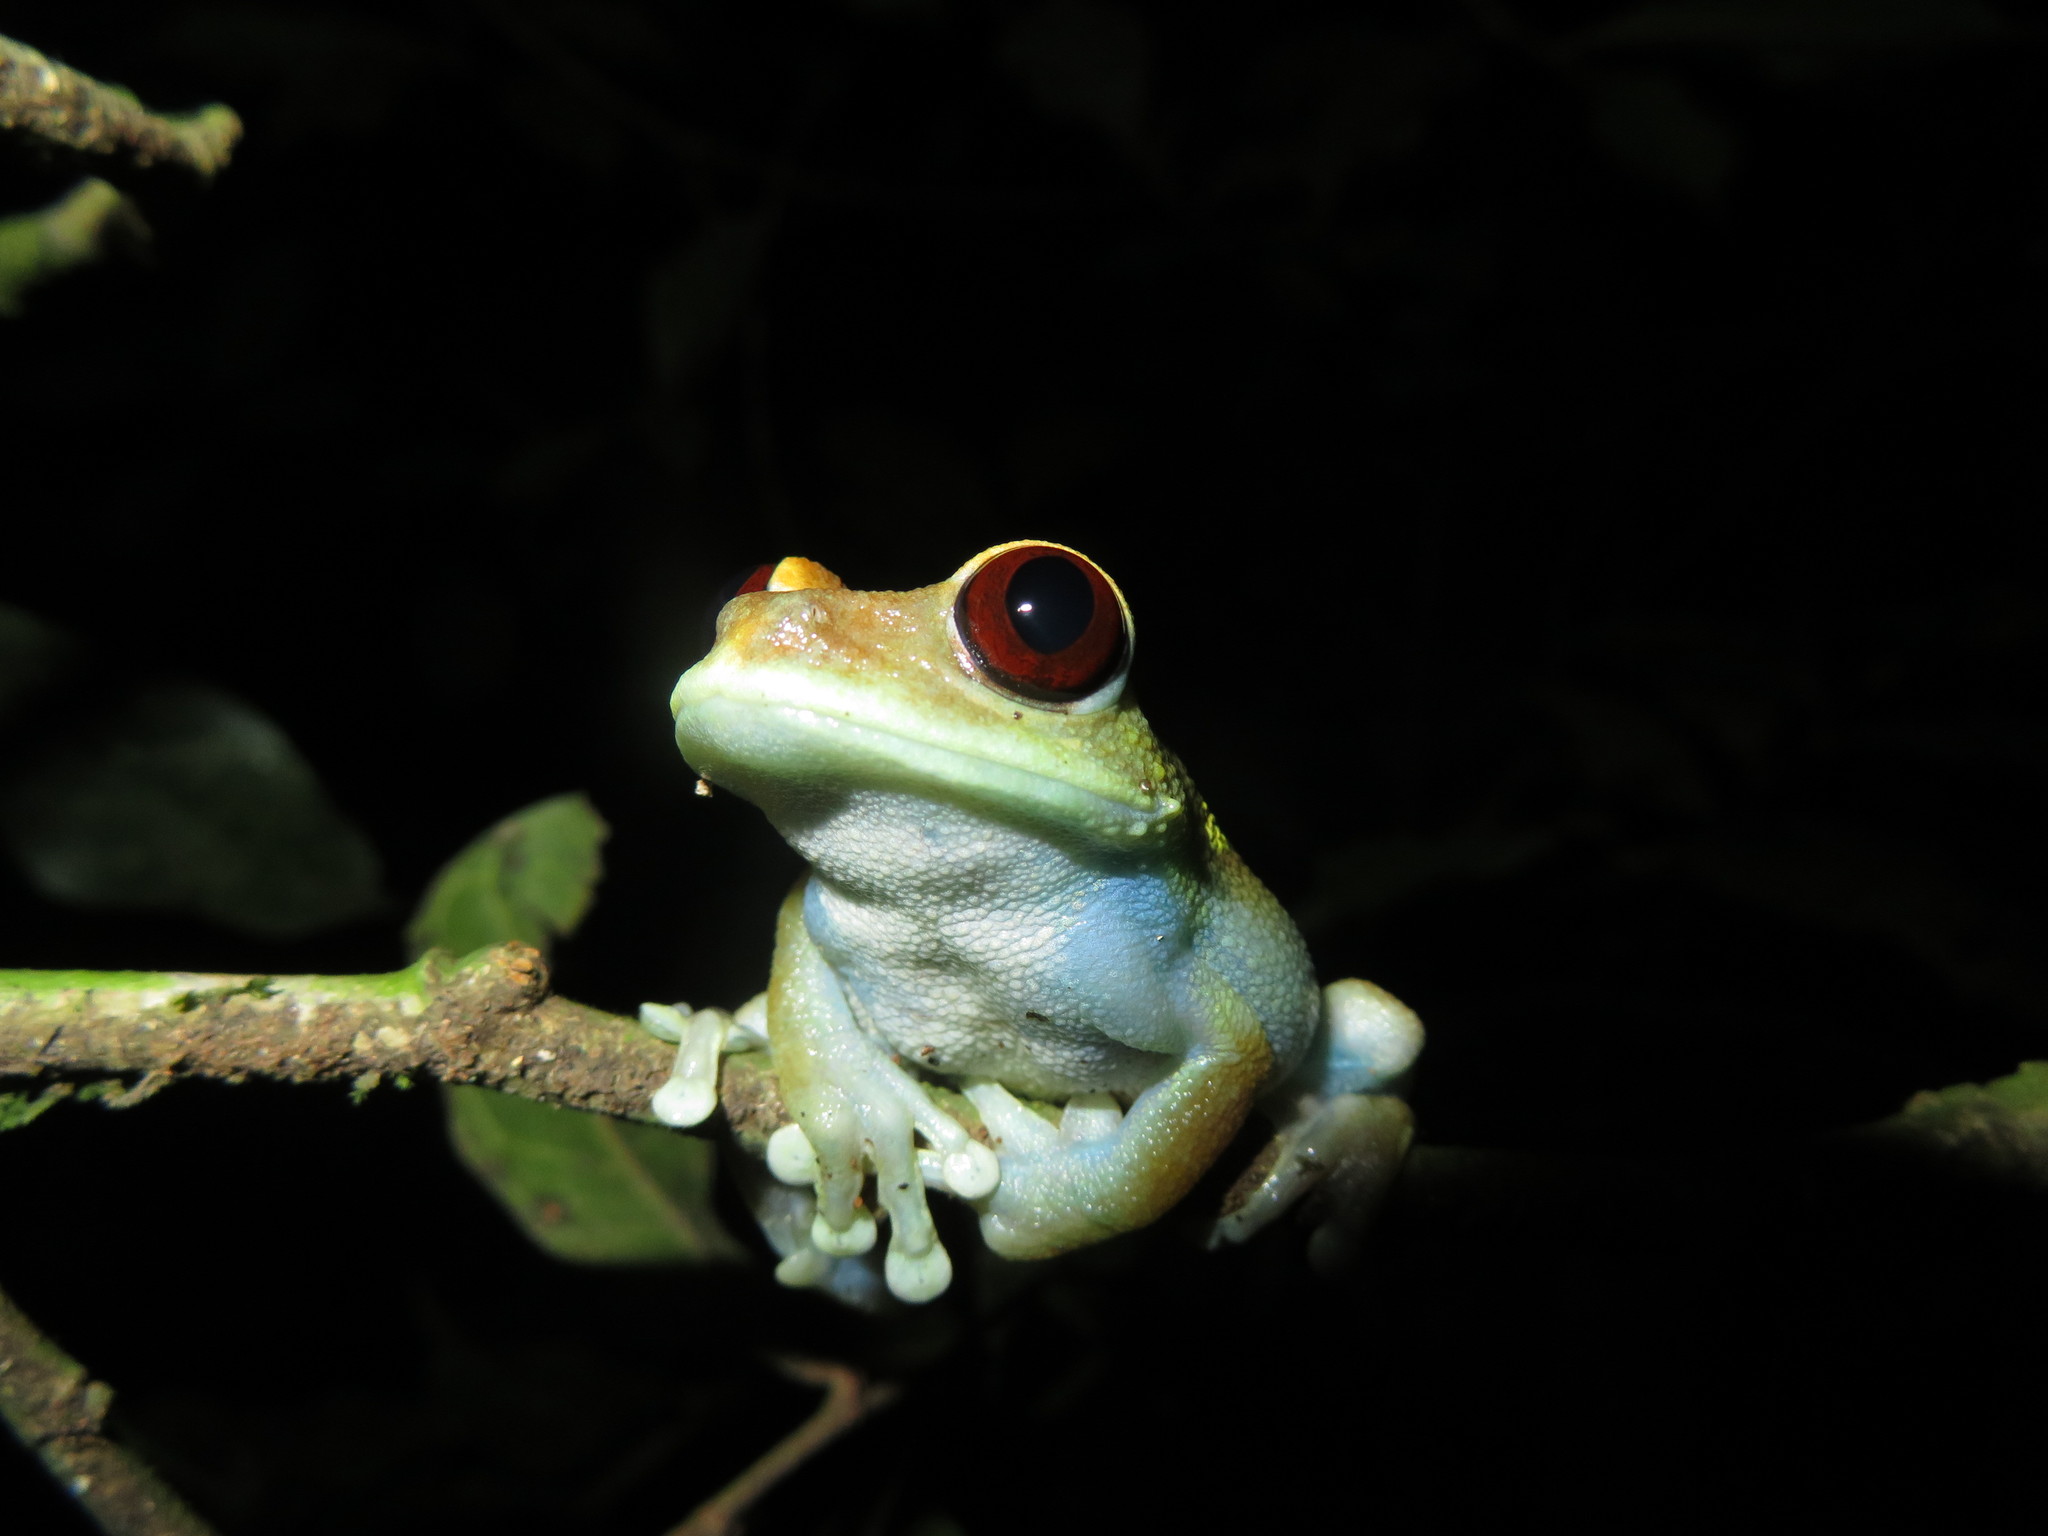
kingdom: Animalia
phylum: Chordata
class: Amphibia
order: Anura
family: Arthroleptidae
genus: Leptopelis
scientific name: Leptopelis uluguruensis
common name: Uluguru forest treefrog
